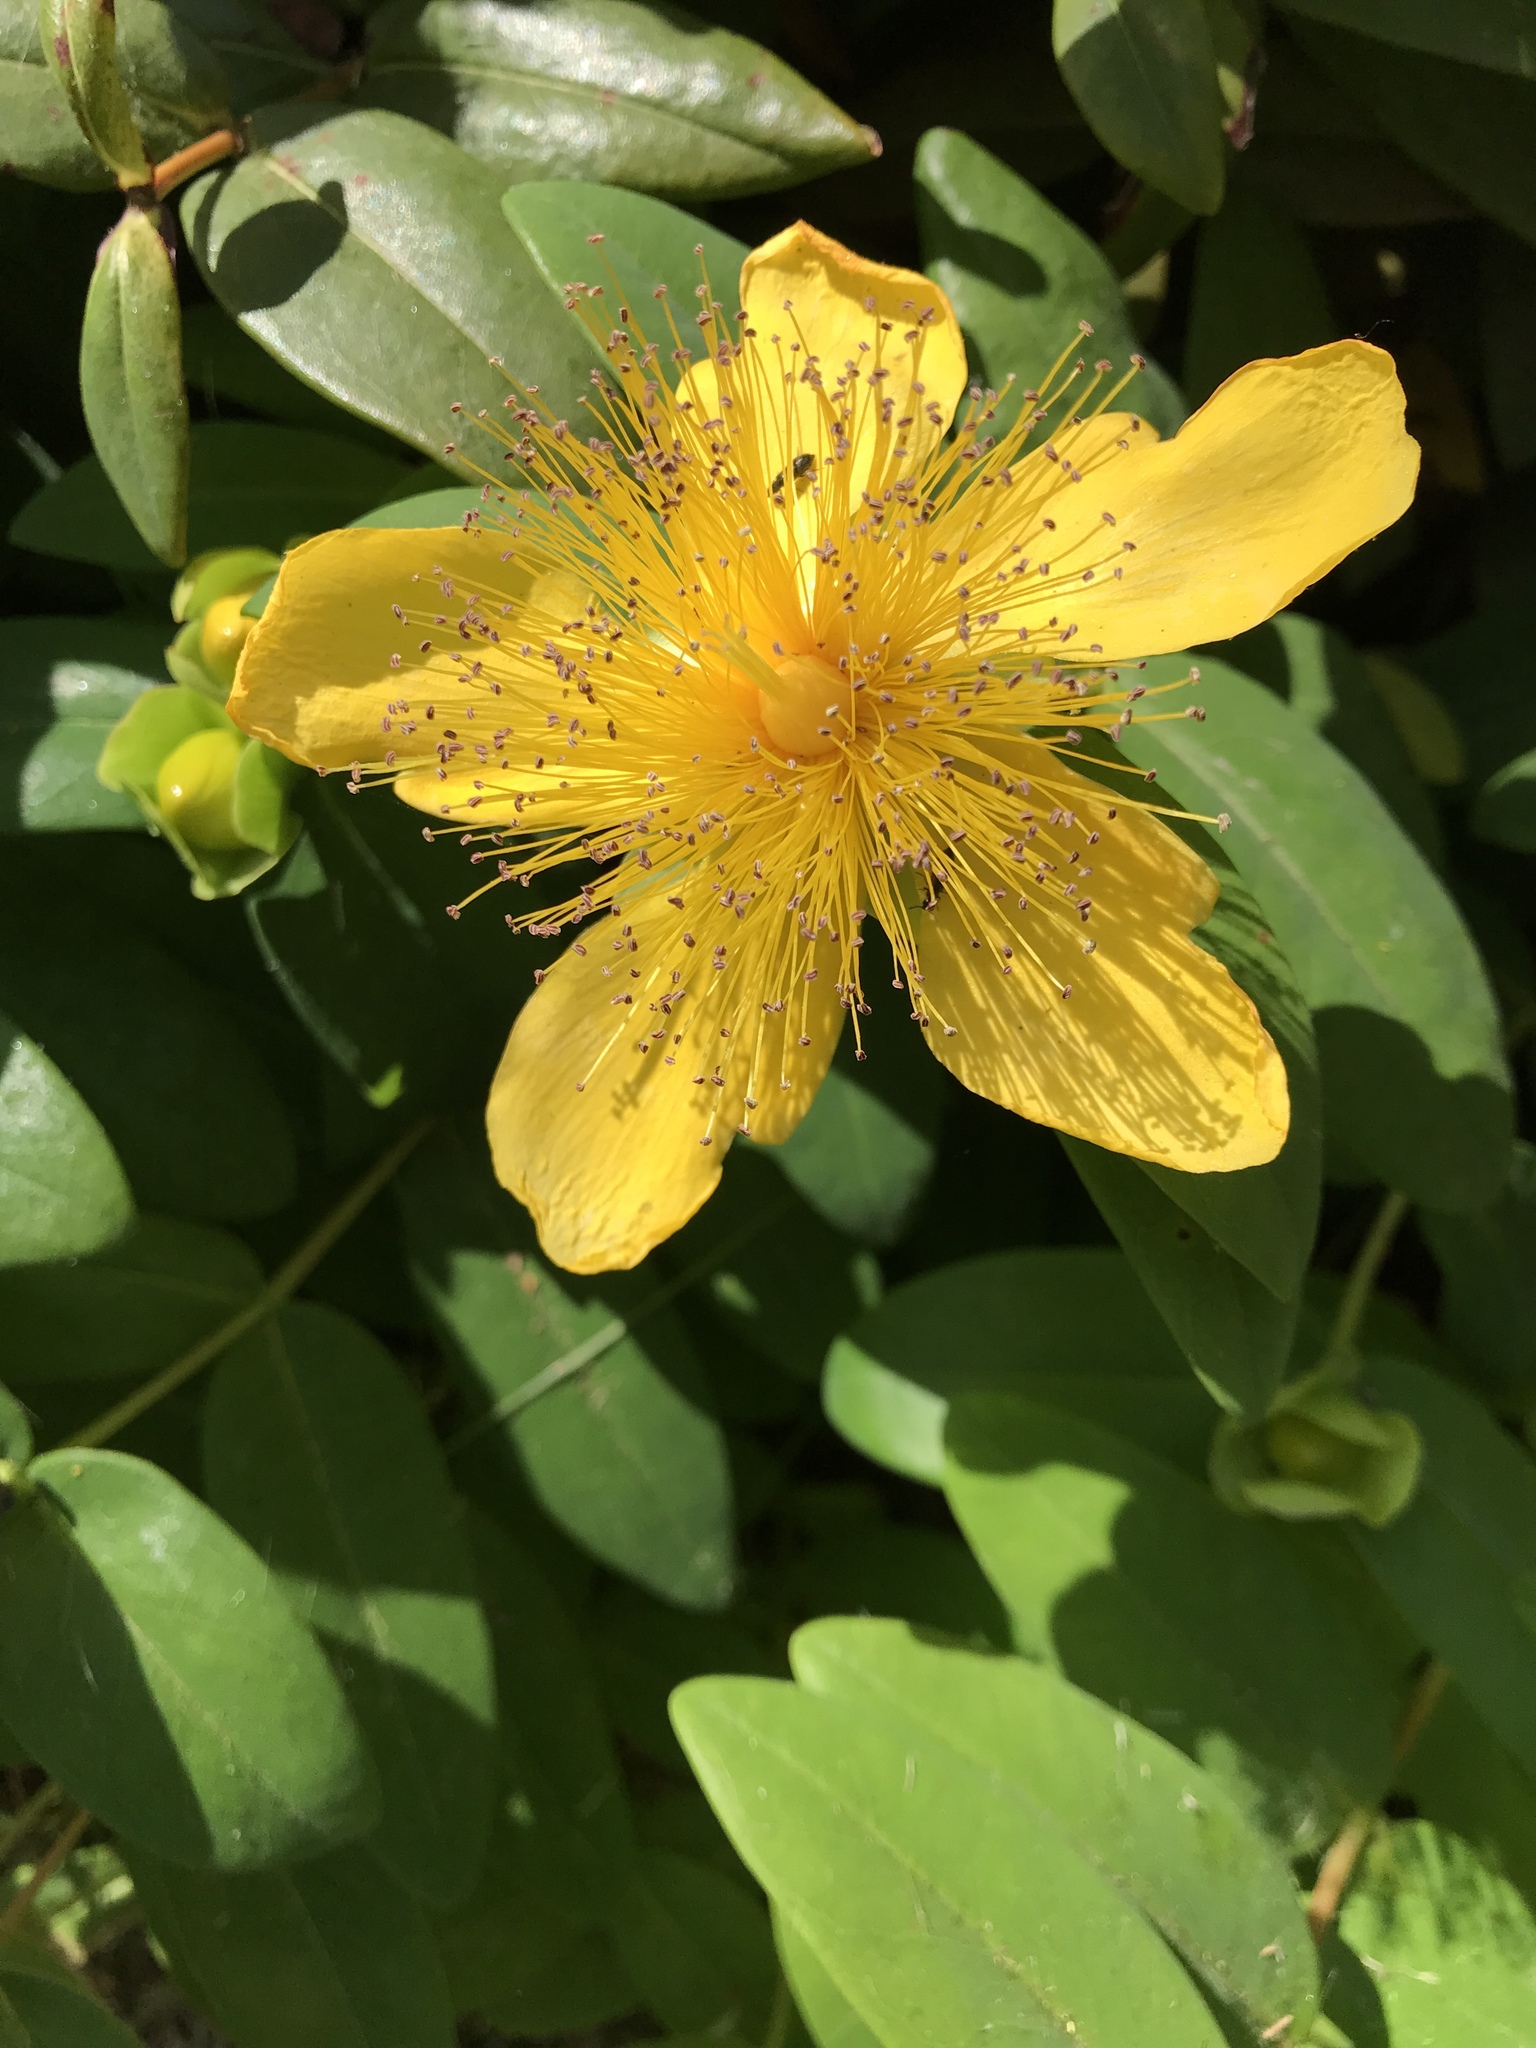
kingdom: Plantae
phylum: Tracheophyta
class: Magnoliopsida
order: Malpighiales
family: Hypericaceae
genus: Hypericum
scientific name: Hypericum calycinum
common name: Rose-of-sharon
